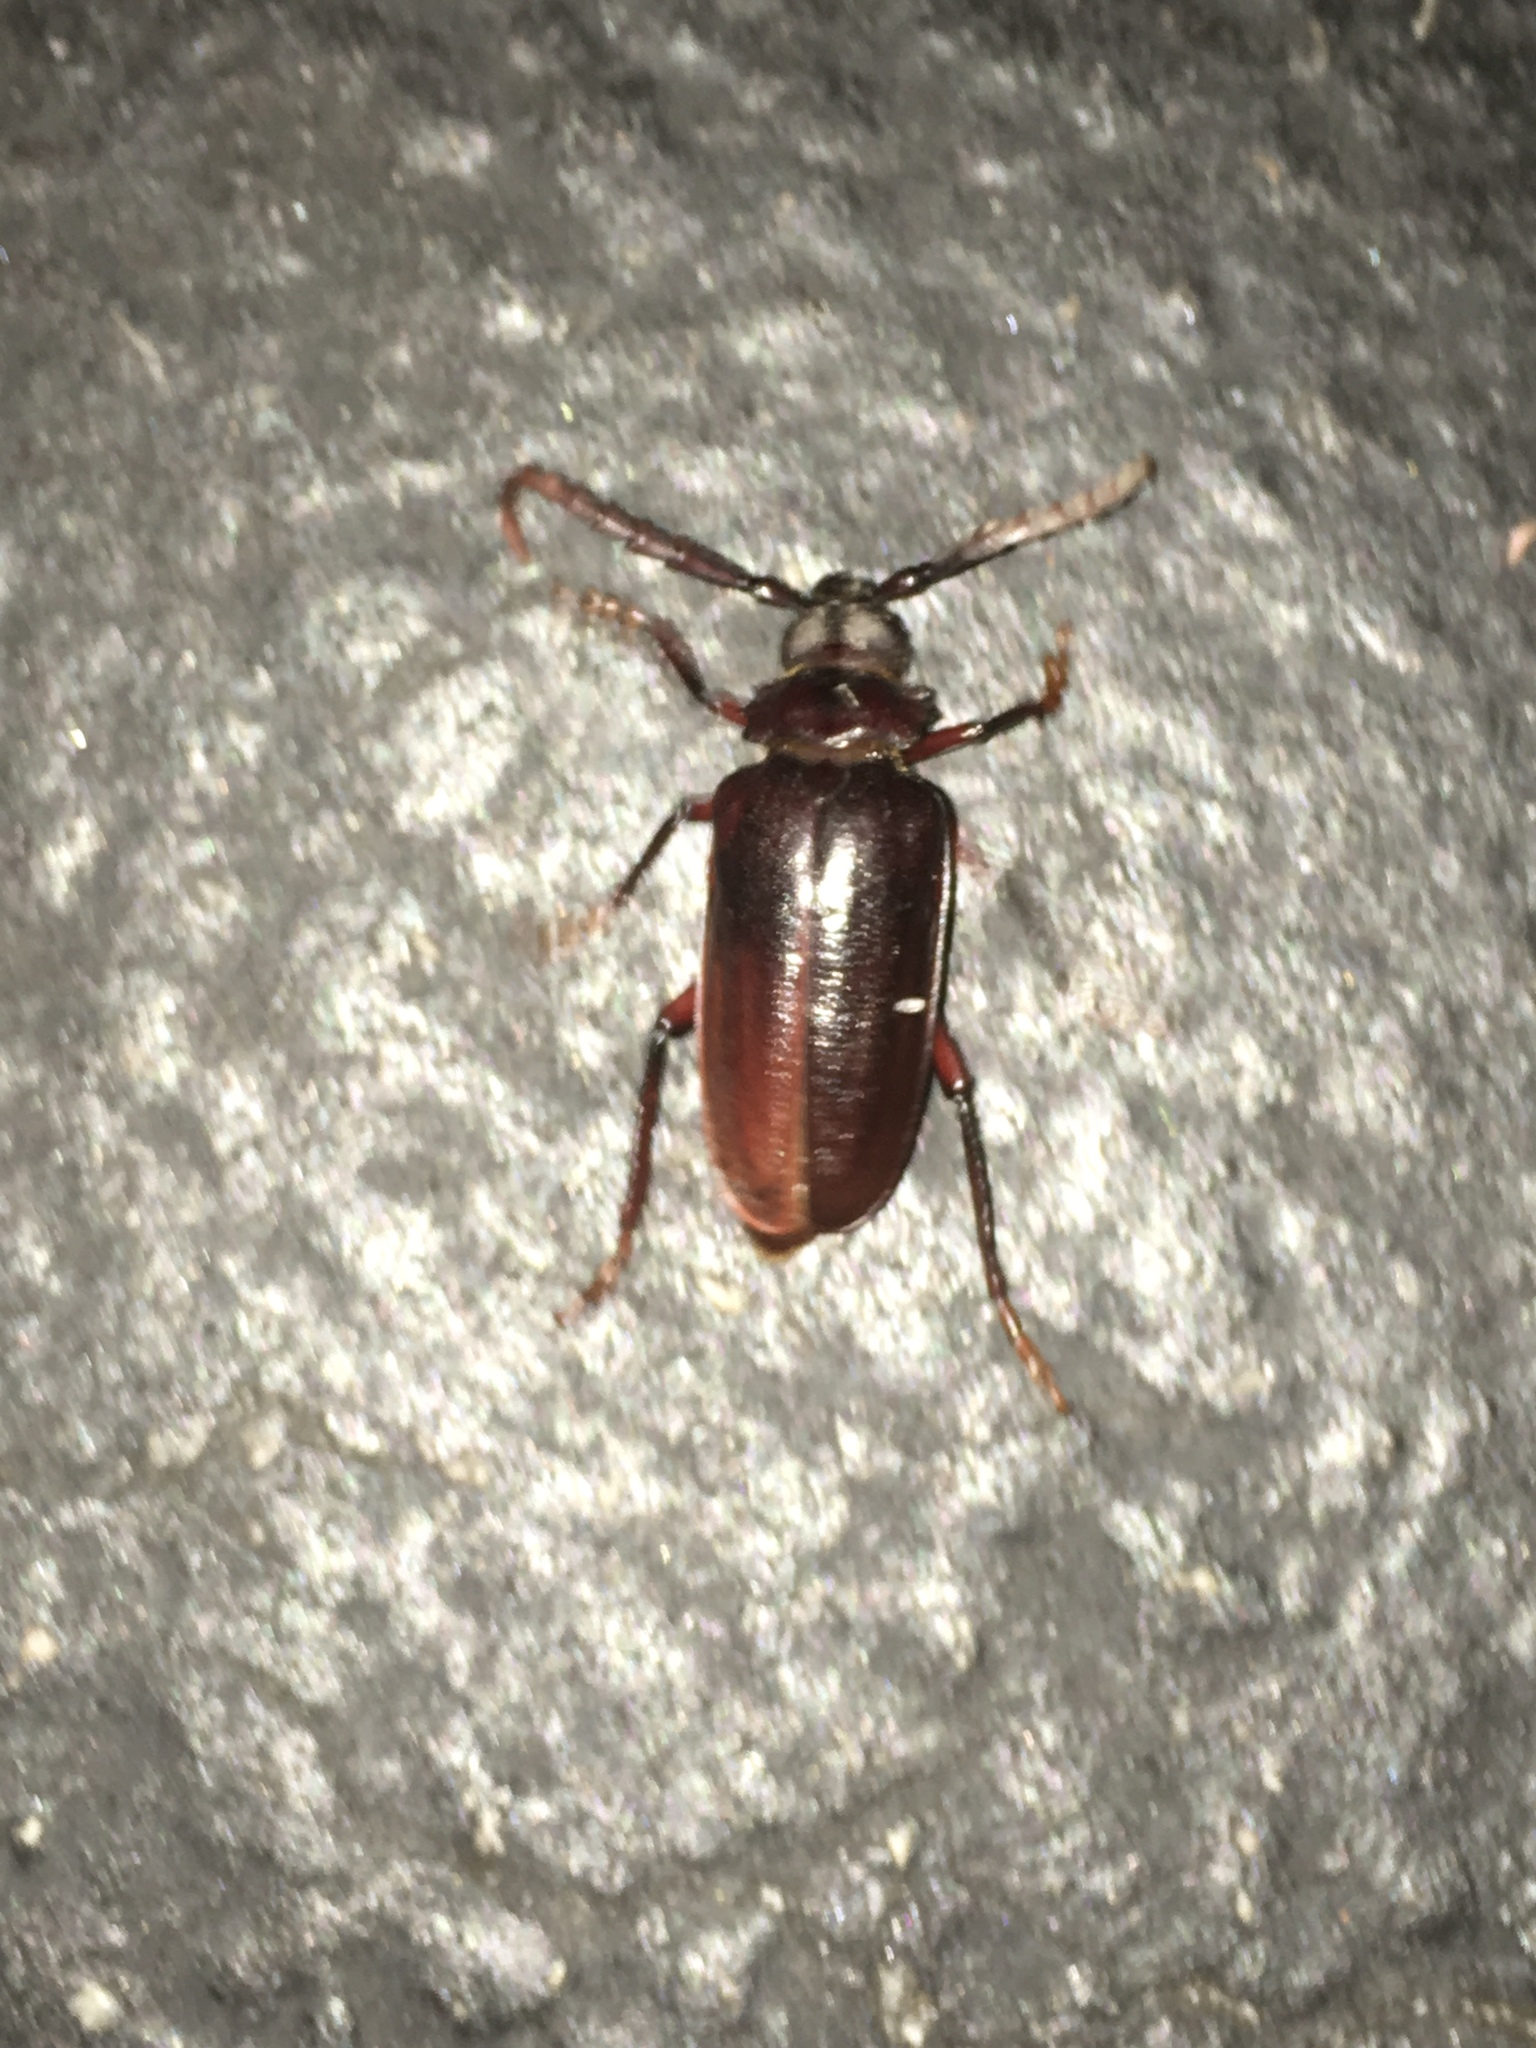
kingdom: Animalia
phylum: Arthropoda
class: Insecta
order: Coleoptera
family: Cerambycidae
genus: Prionus
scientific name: Prionus pocularis
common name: Tooth-necked longhorn beetle
